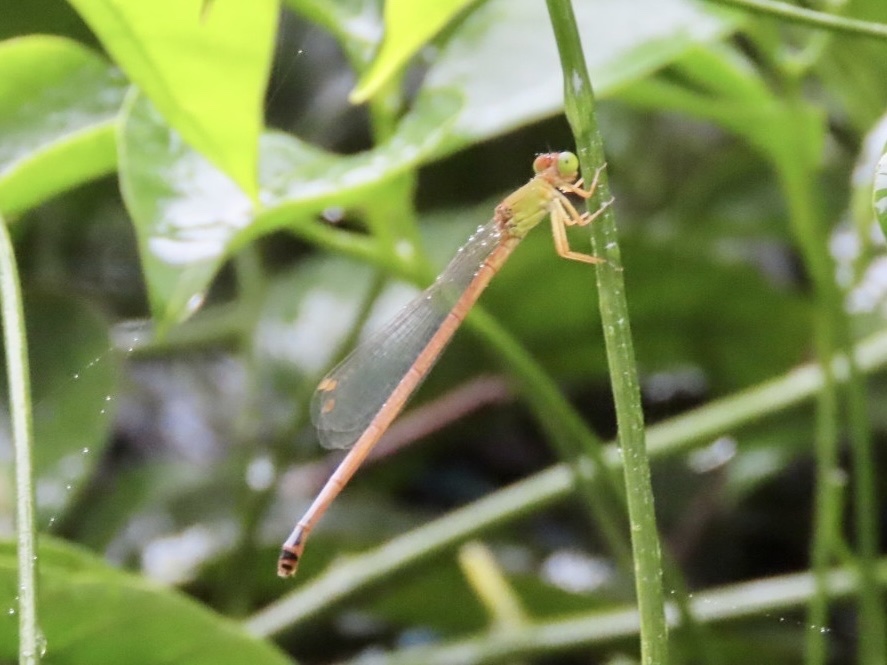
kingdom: Animalia
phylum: Arthropoda
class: Insecta
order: Odonata
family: Coenagrionidae
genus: Ceriagrion
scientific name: Ceriagrion auranticum
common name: Orange-tailed sprite
